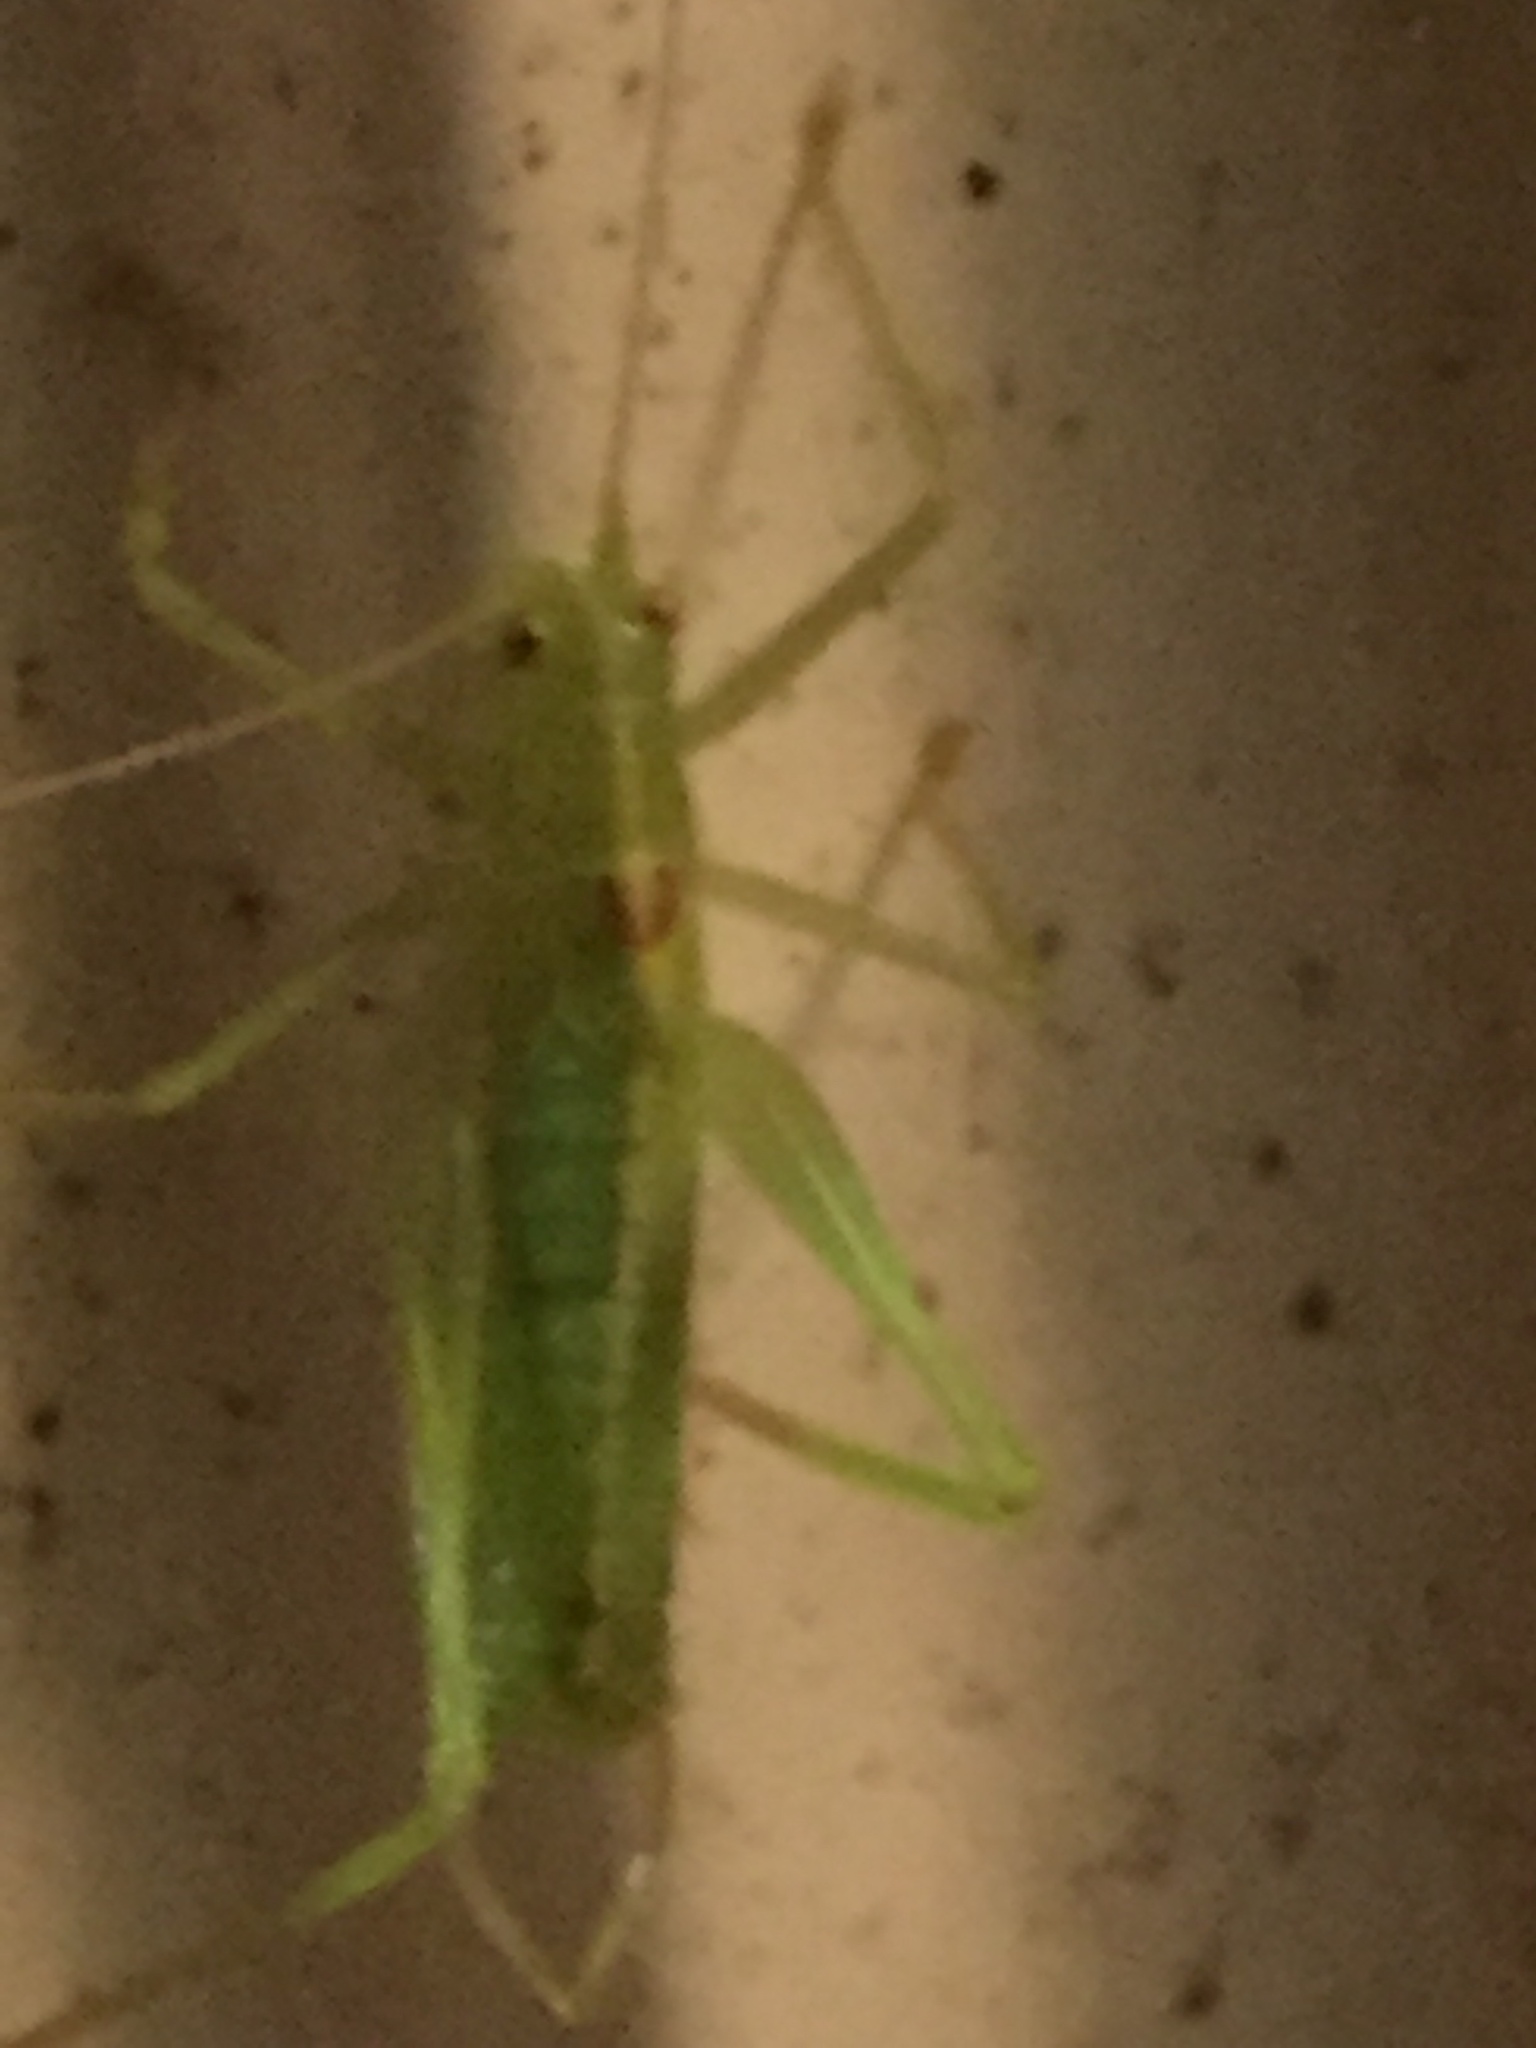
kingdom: Animalia
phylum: Arthropoda
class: Insecta
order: Orthoptera
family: Tettigoniidae
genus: Meconema
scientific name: Meconema meridionale
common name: Southern oak bush-cricket
